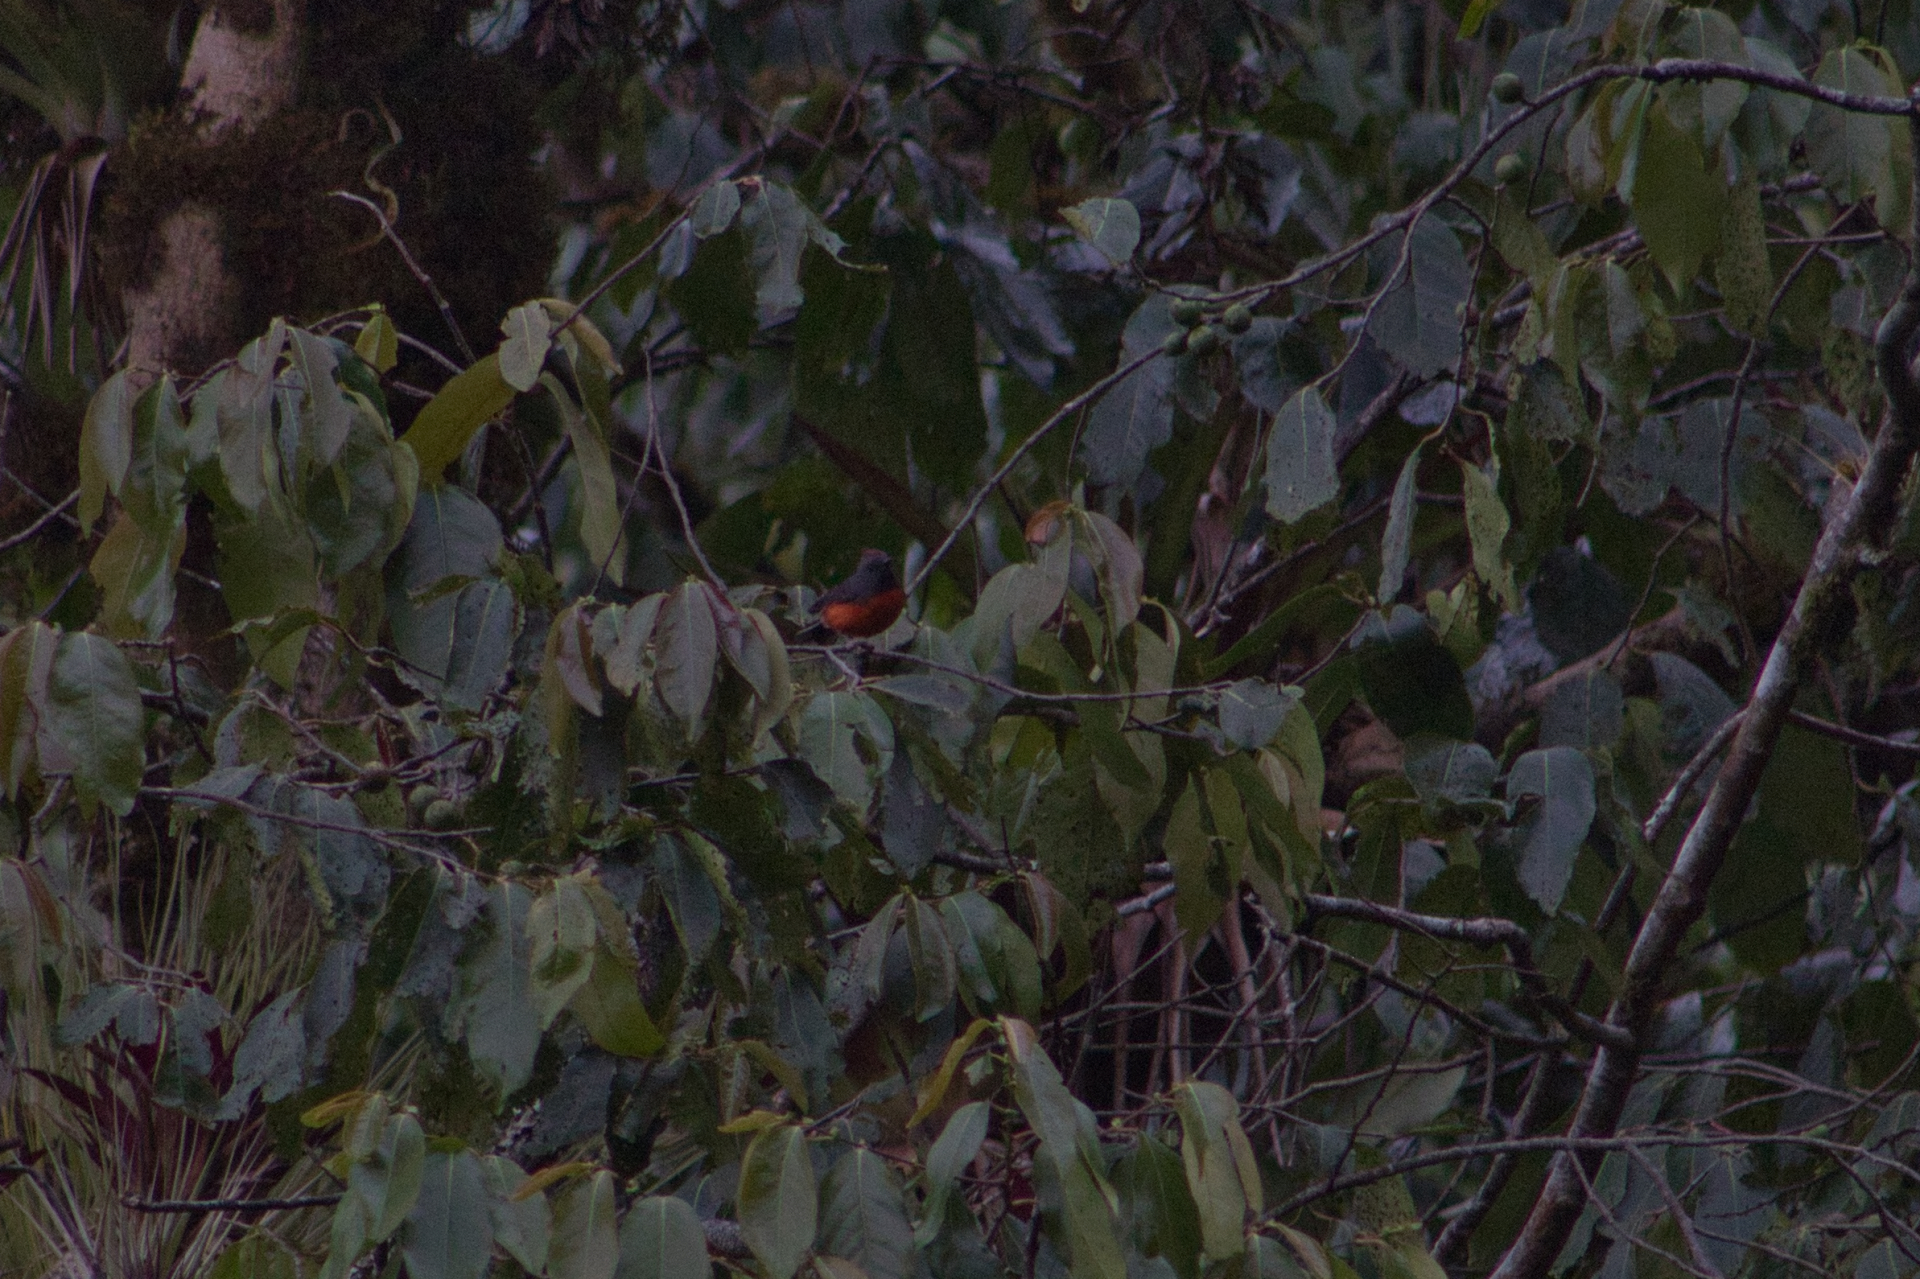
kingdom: Animalia
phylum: Chordata
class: Aves
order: Passeriformes
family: Parulidae
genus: Myioborus
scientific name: Myioborus miniatus
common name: Slate-throated redstart
